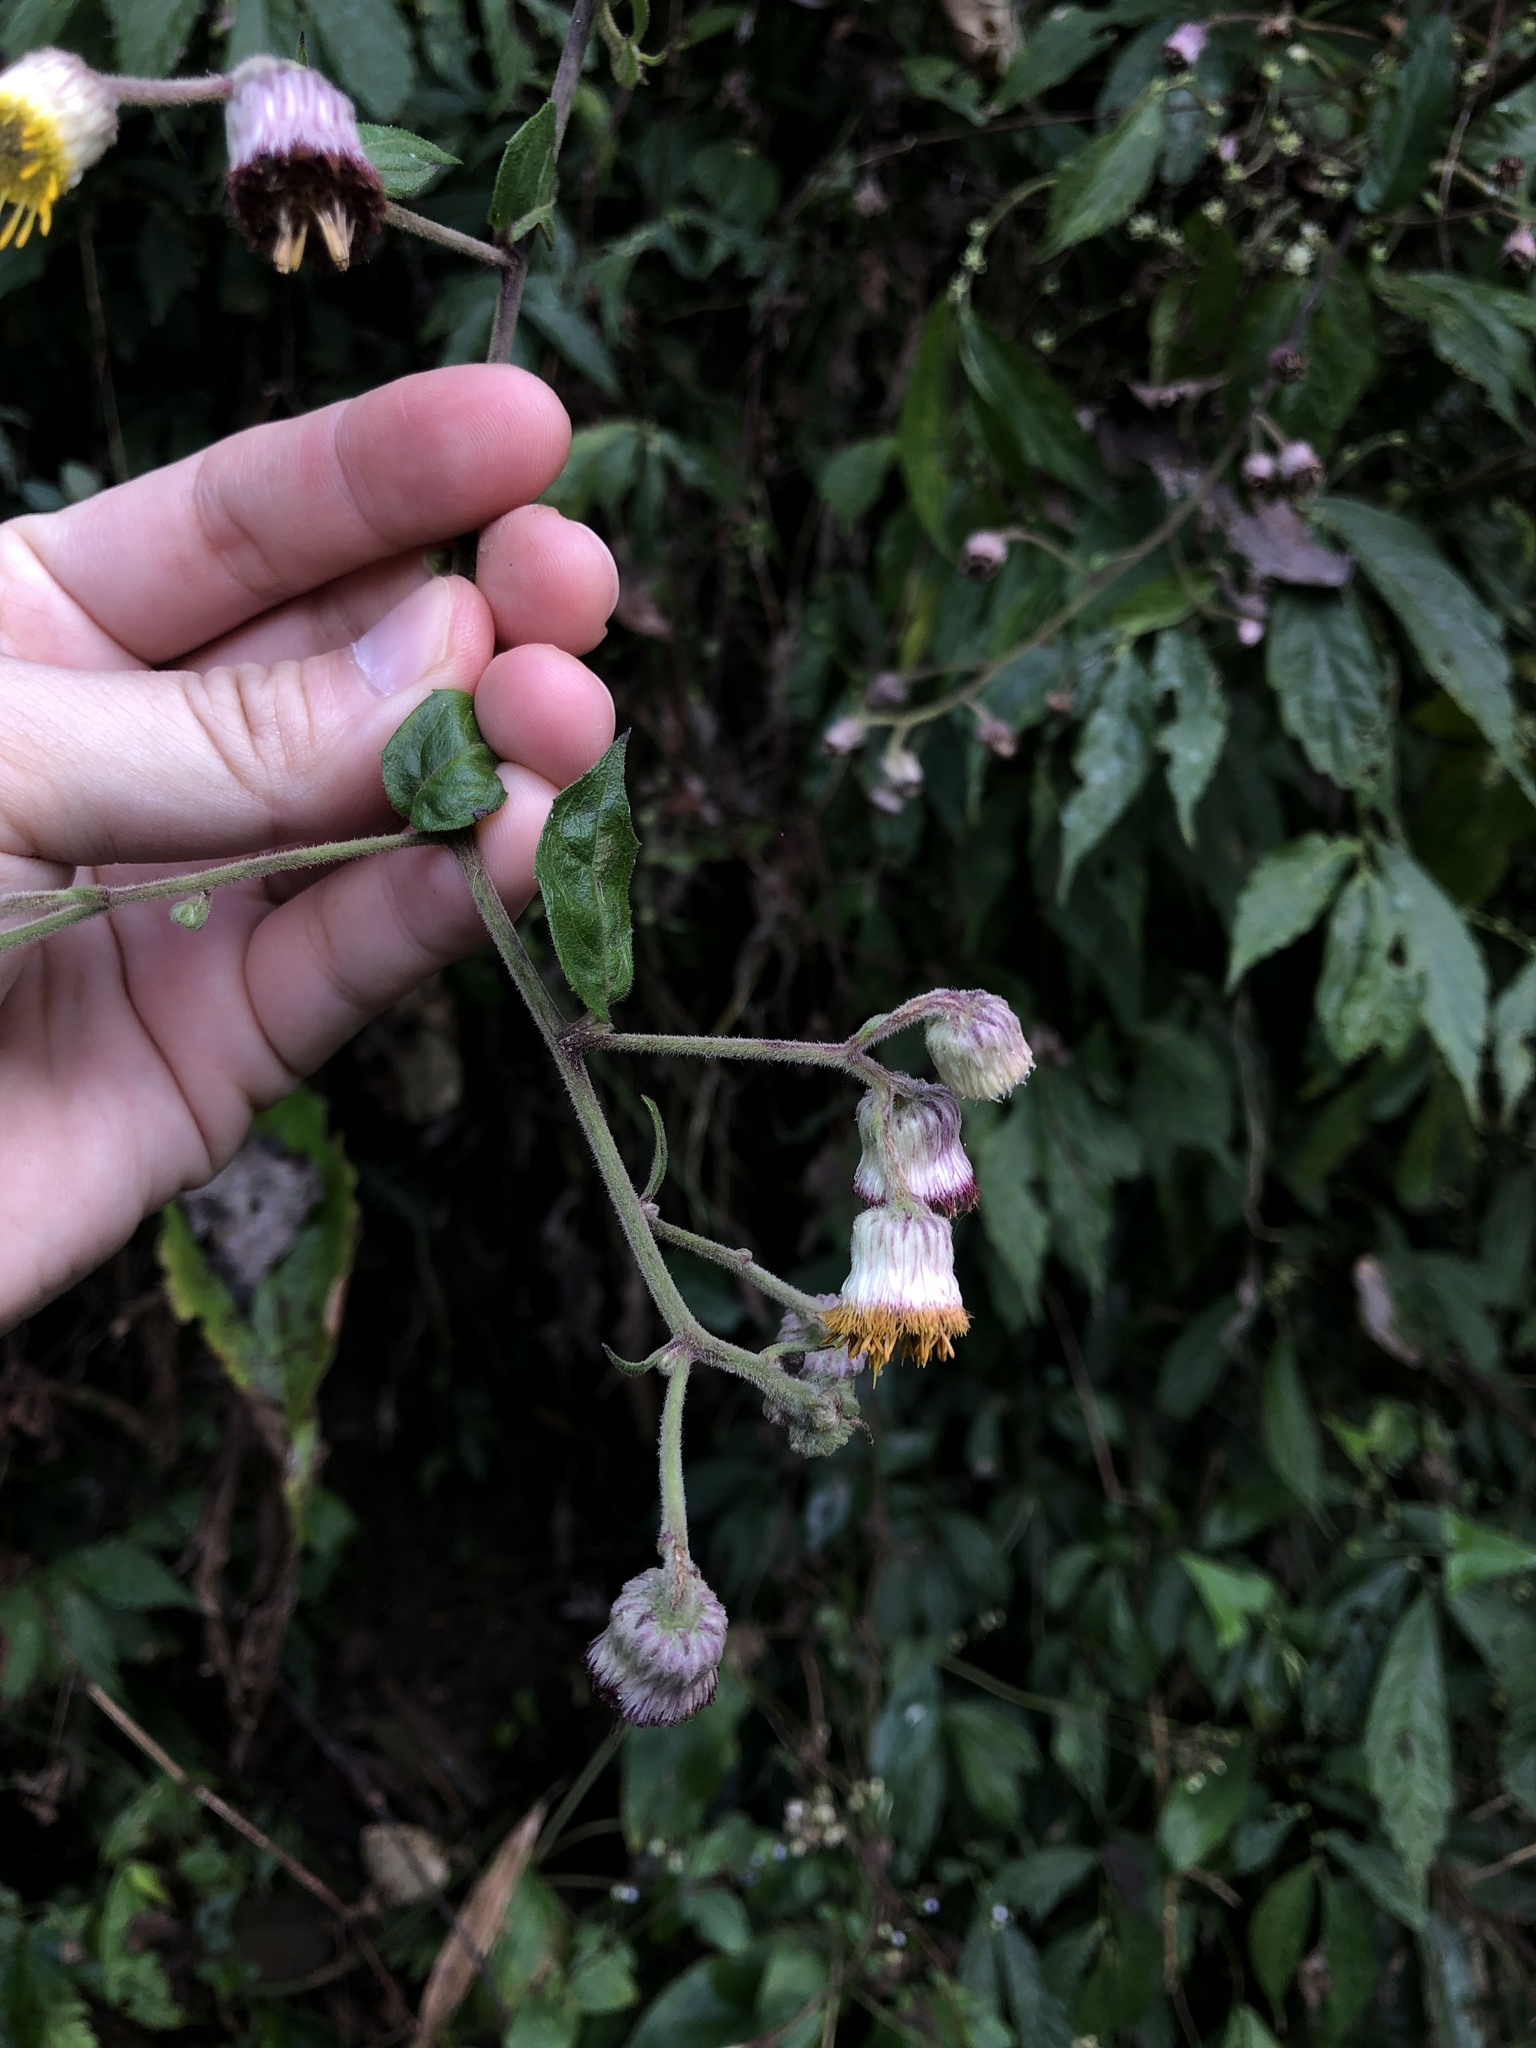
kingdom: Plantae
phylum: Tracheophyta
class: Magnoliopsida
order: Asterales
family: Asteraceae
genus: Blumea
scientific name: Blumea megacephala
